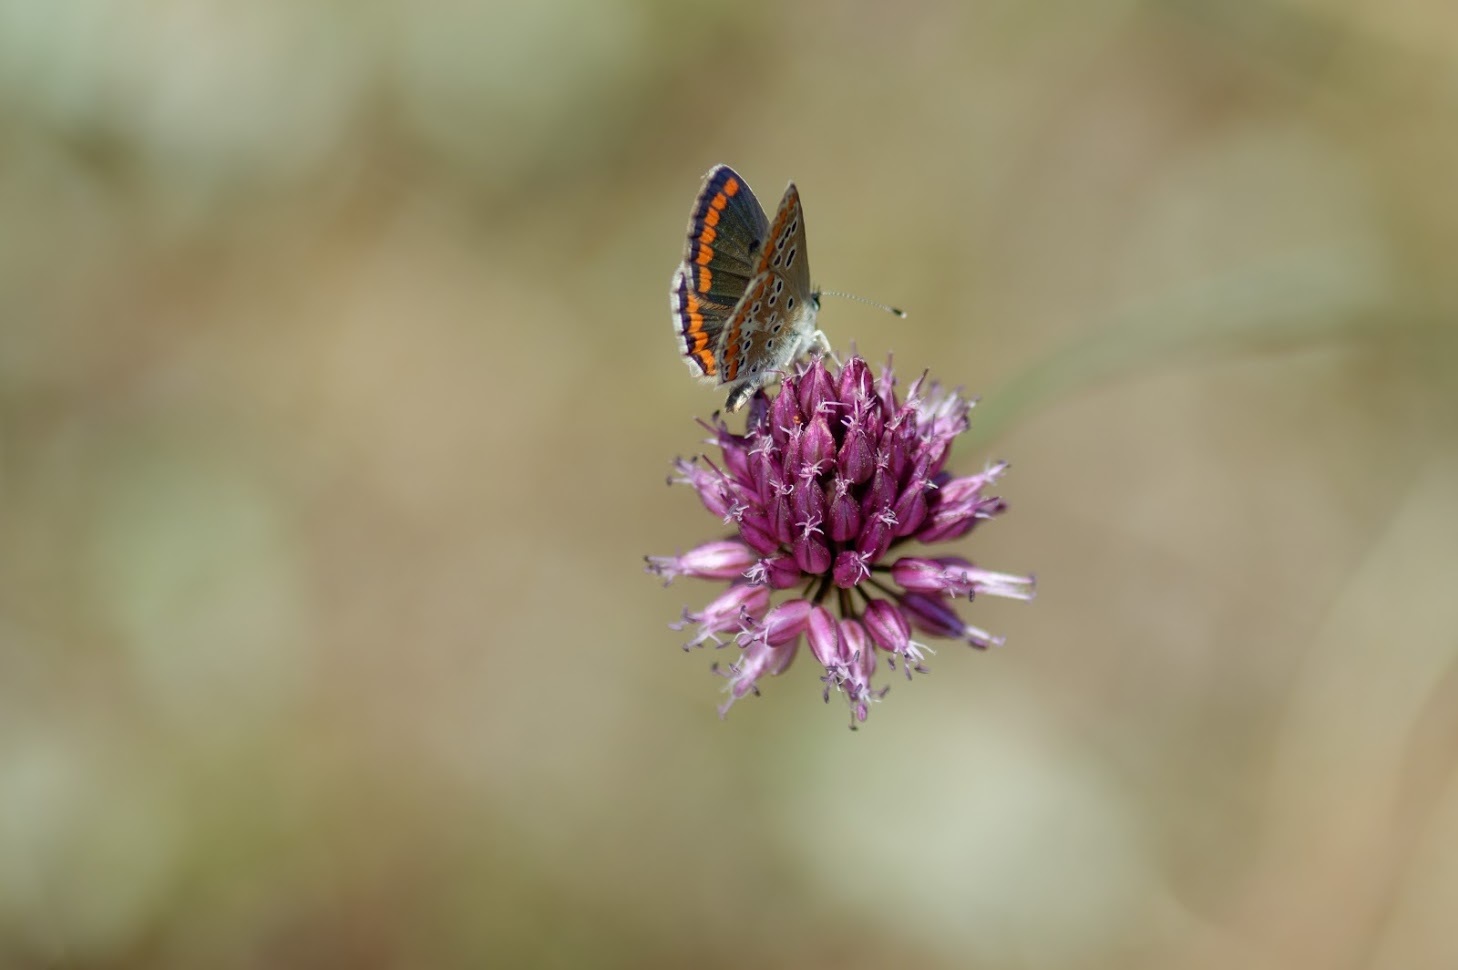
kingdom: Animalia
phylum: Arthropoda
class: Insecta
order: Lepidoptera
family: Lycaenidae
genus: Aricia
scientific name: Aricia agestis
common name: Brown argus
